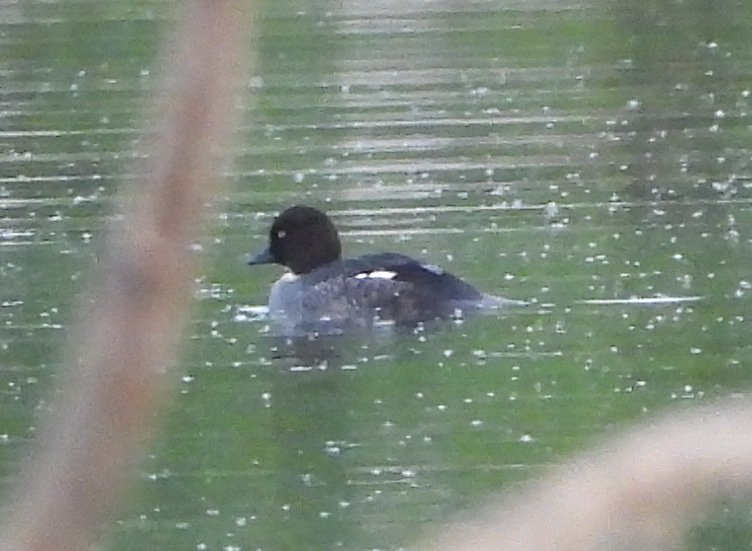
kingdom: Animalia
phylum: Chordata
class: Aves
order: Anseriformes
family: Anatidae
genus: Bucephala
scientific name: Bucephala clangula
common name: Common goldeneye
